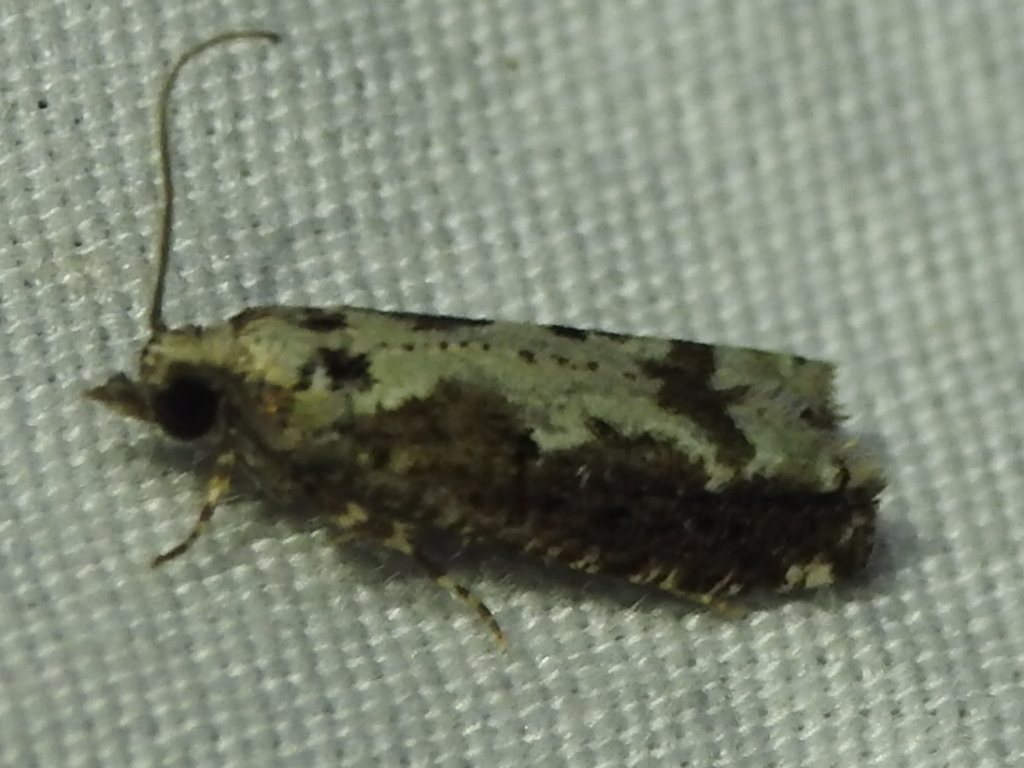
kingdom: Animalia
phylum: Arthropoda
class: Insecta
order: Lepidoptera
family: Tortricidae
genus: Chimoptesis
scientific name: Chimoptesis pennsylvaniana
